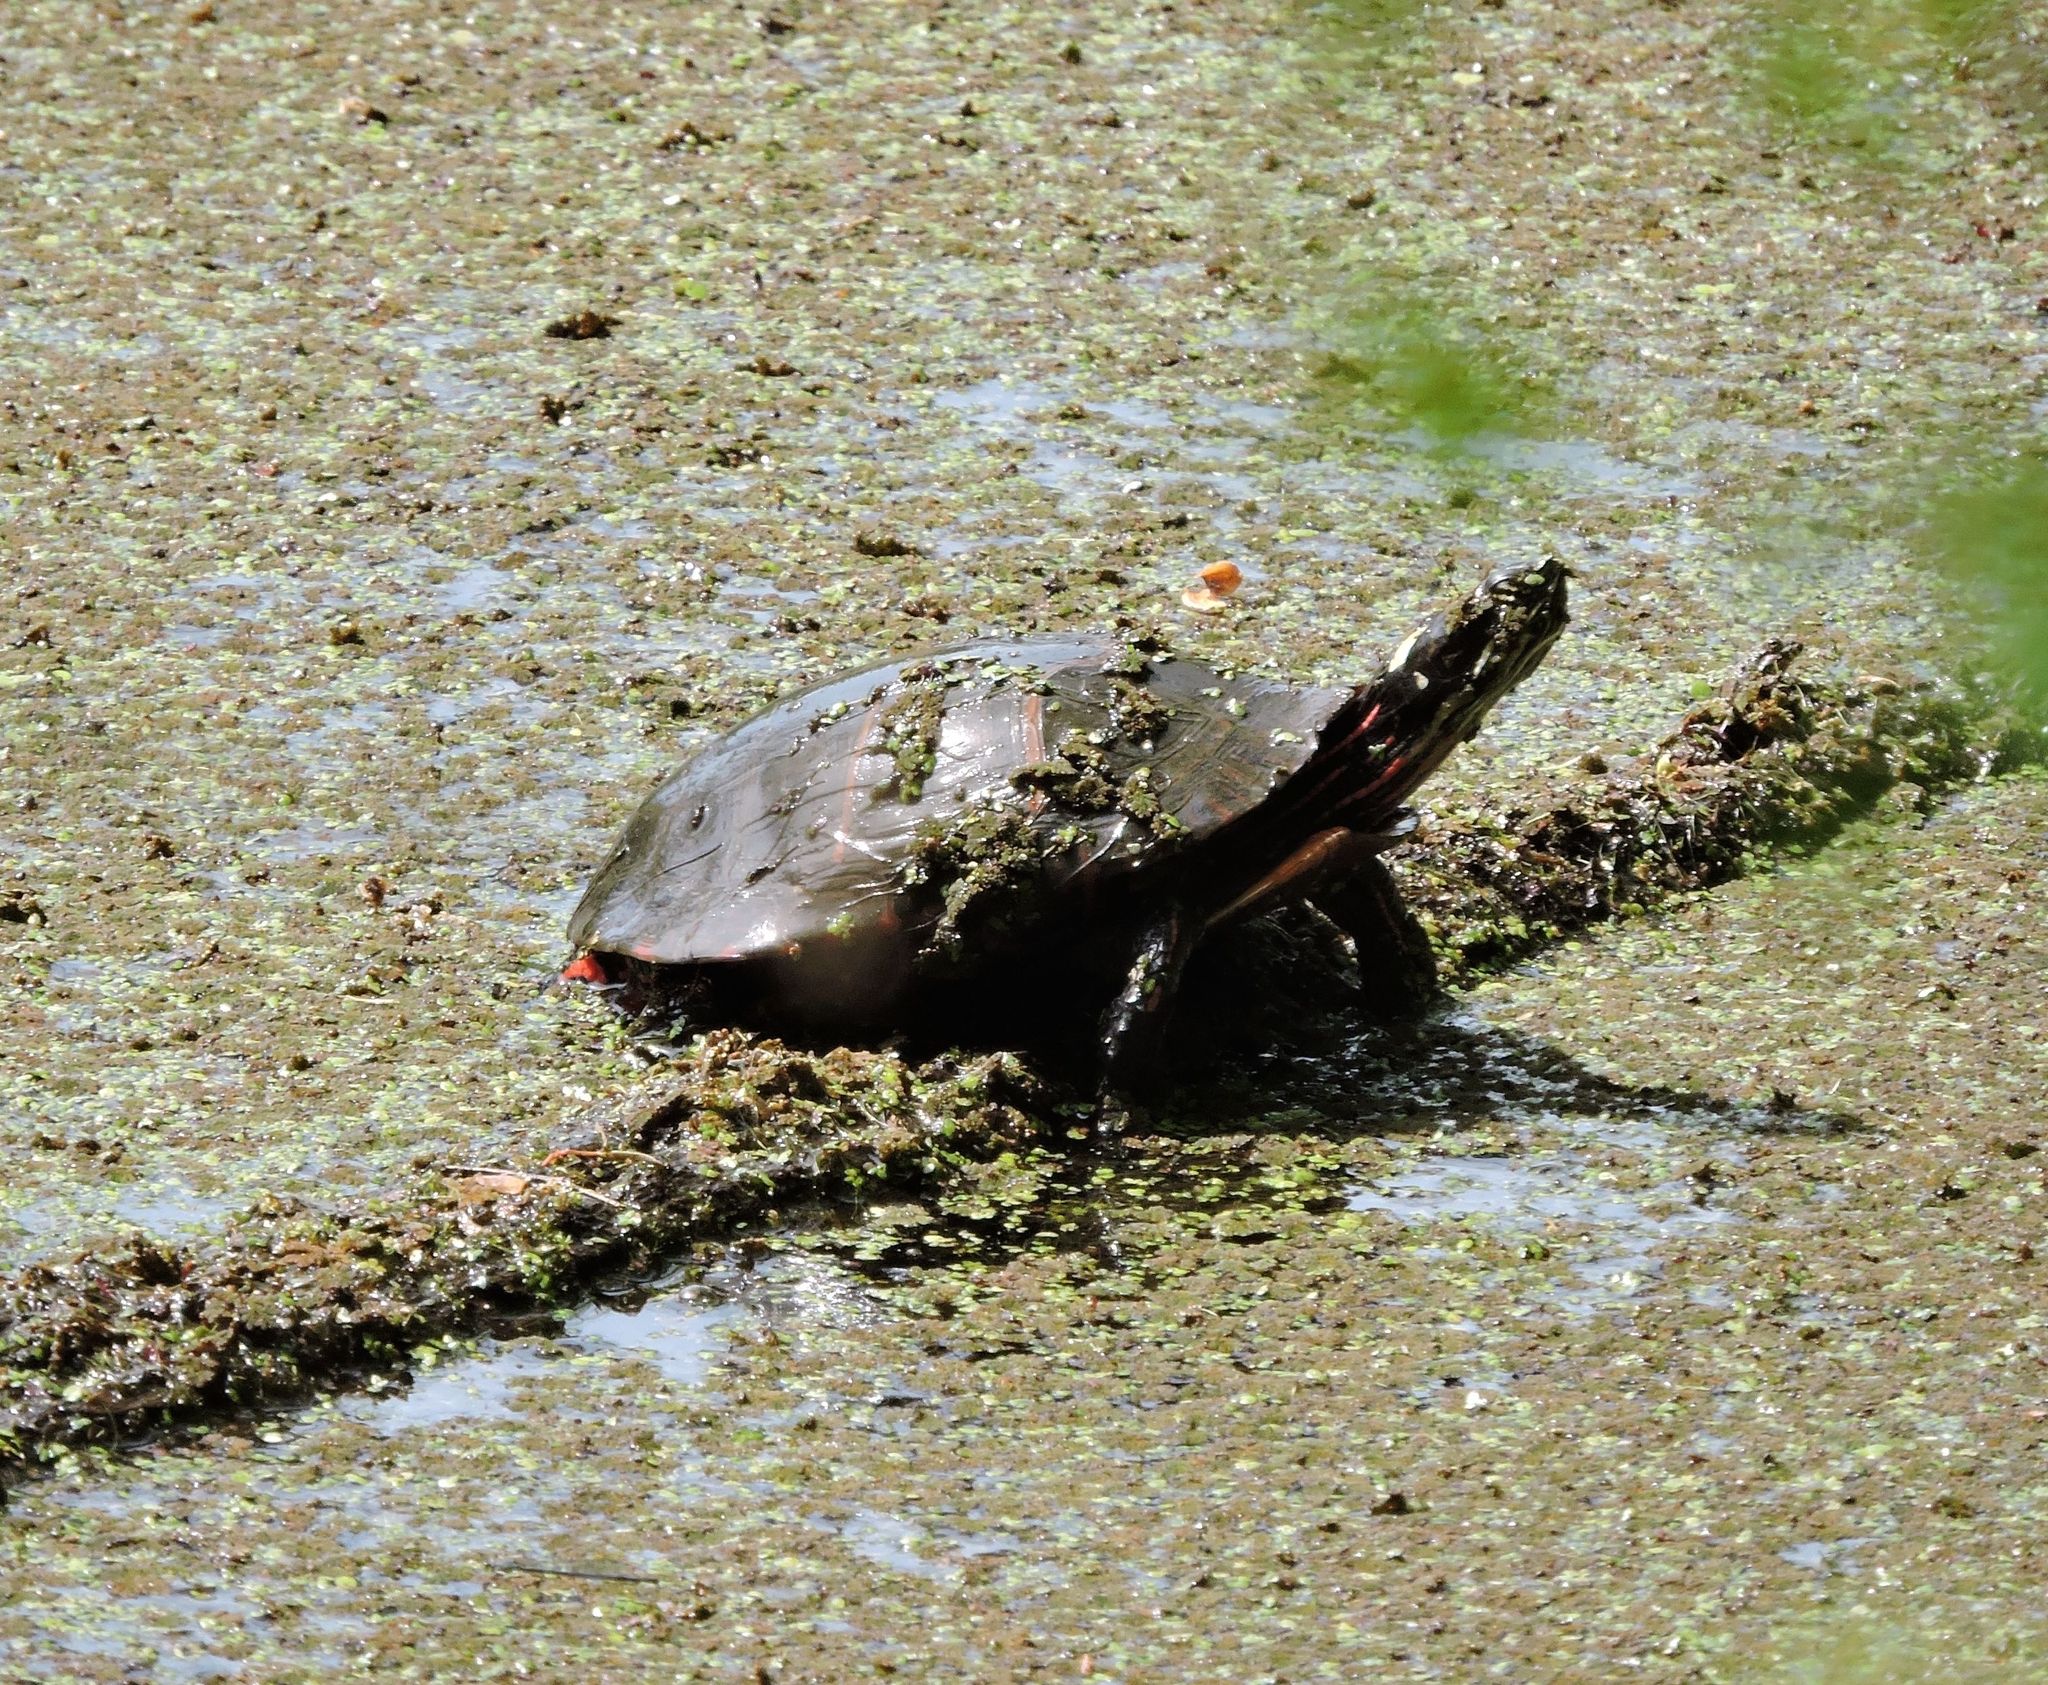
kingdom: Animalia
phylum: Chordata
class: Testudines
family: Emydidae
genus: Chrysemys
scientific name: Chrysemys picta
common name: Painted turtle
